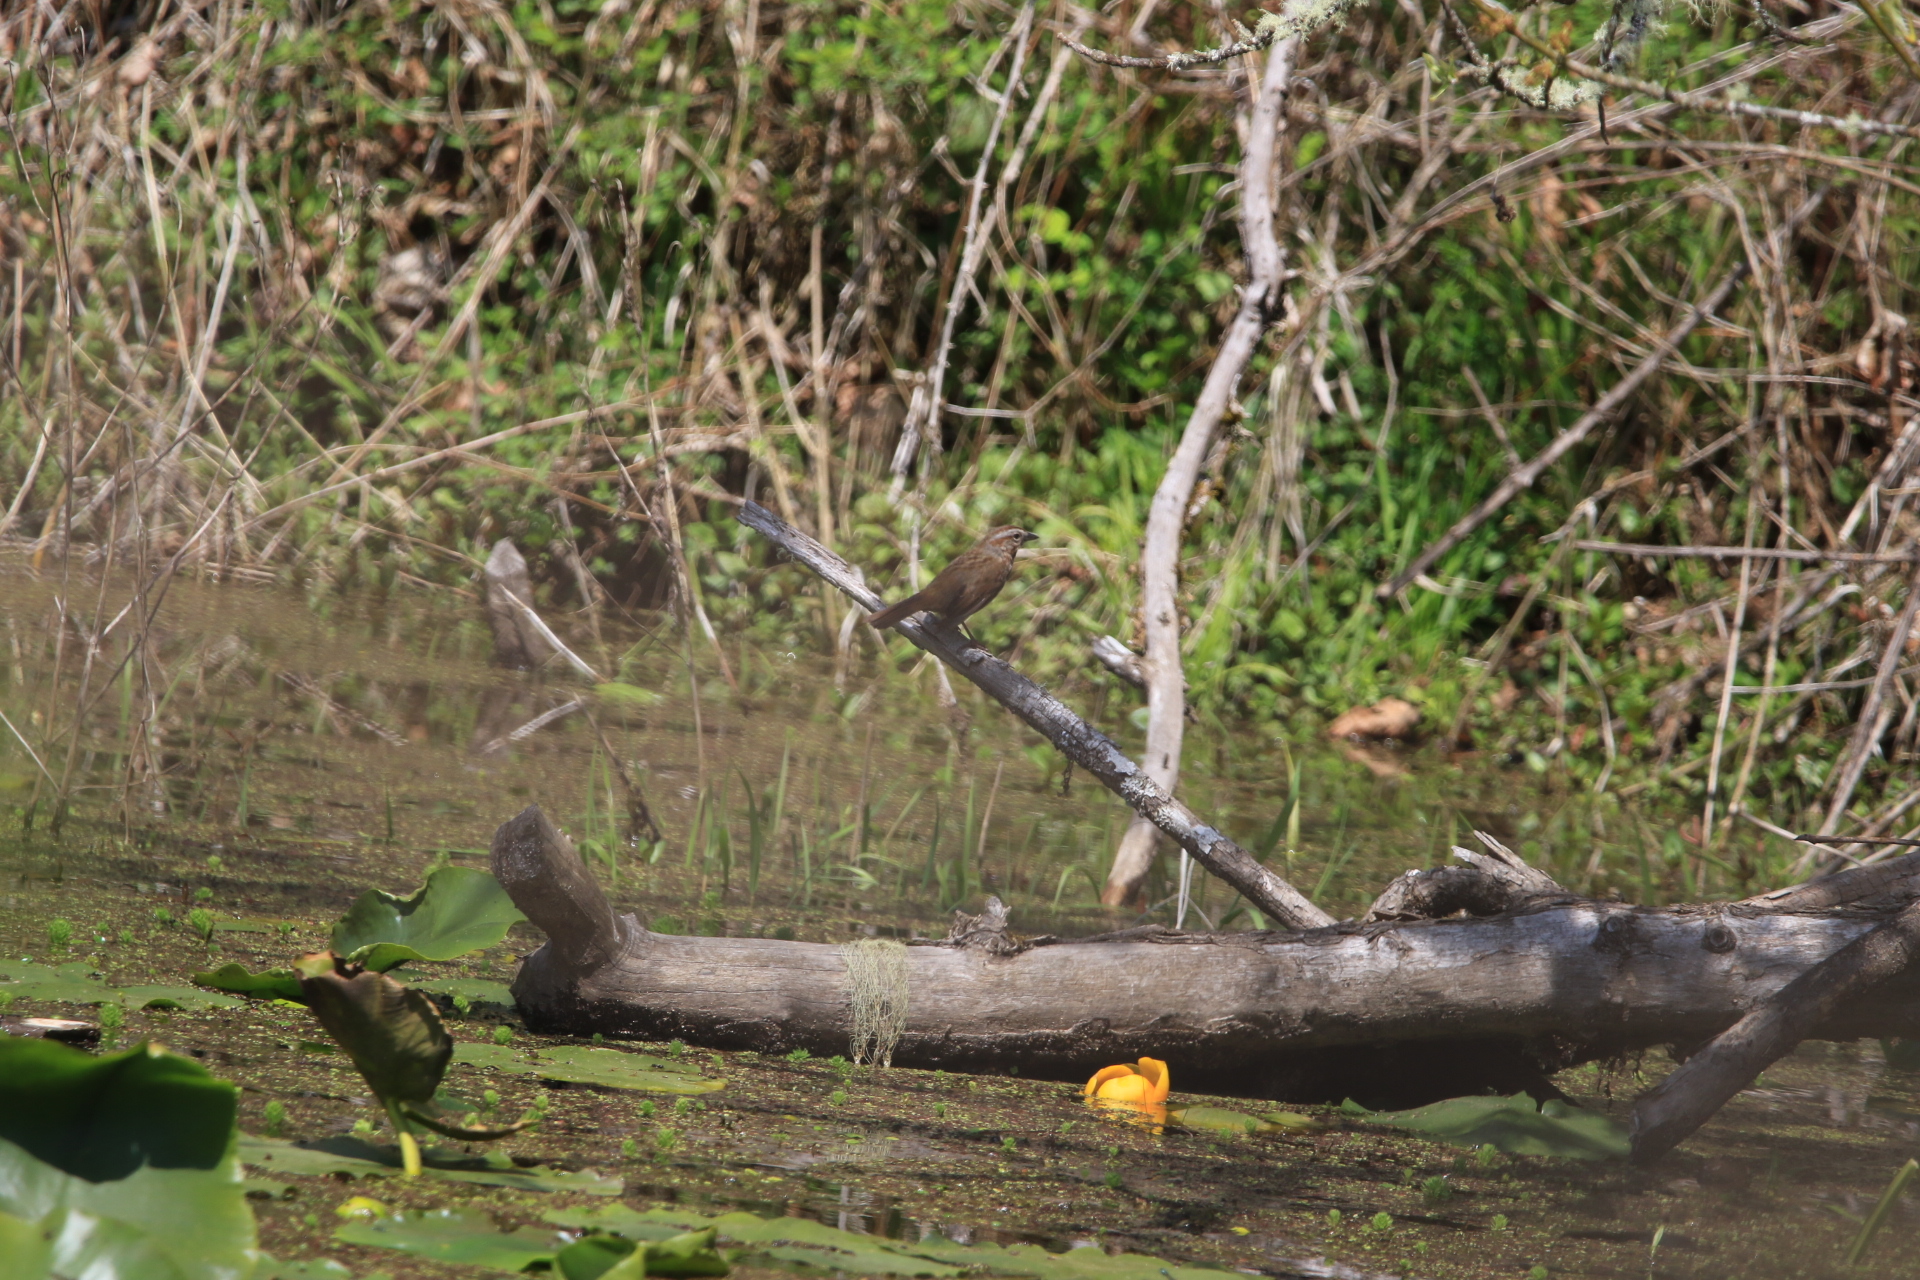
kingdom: Animalia
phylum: Chordata
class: Aves
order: Passeriformes
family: Passerellidae
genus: Melospiza
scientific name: Melospiza melodia
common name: Song sparrow
